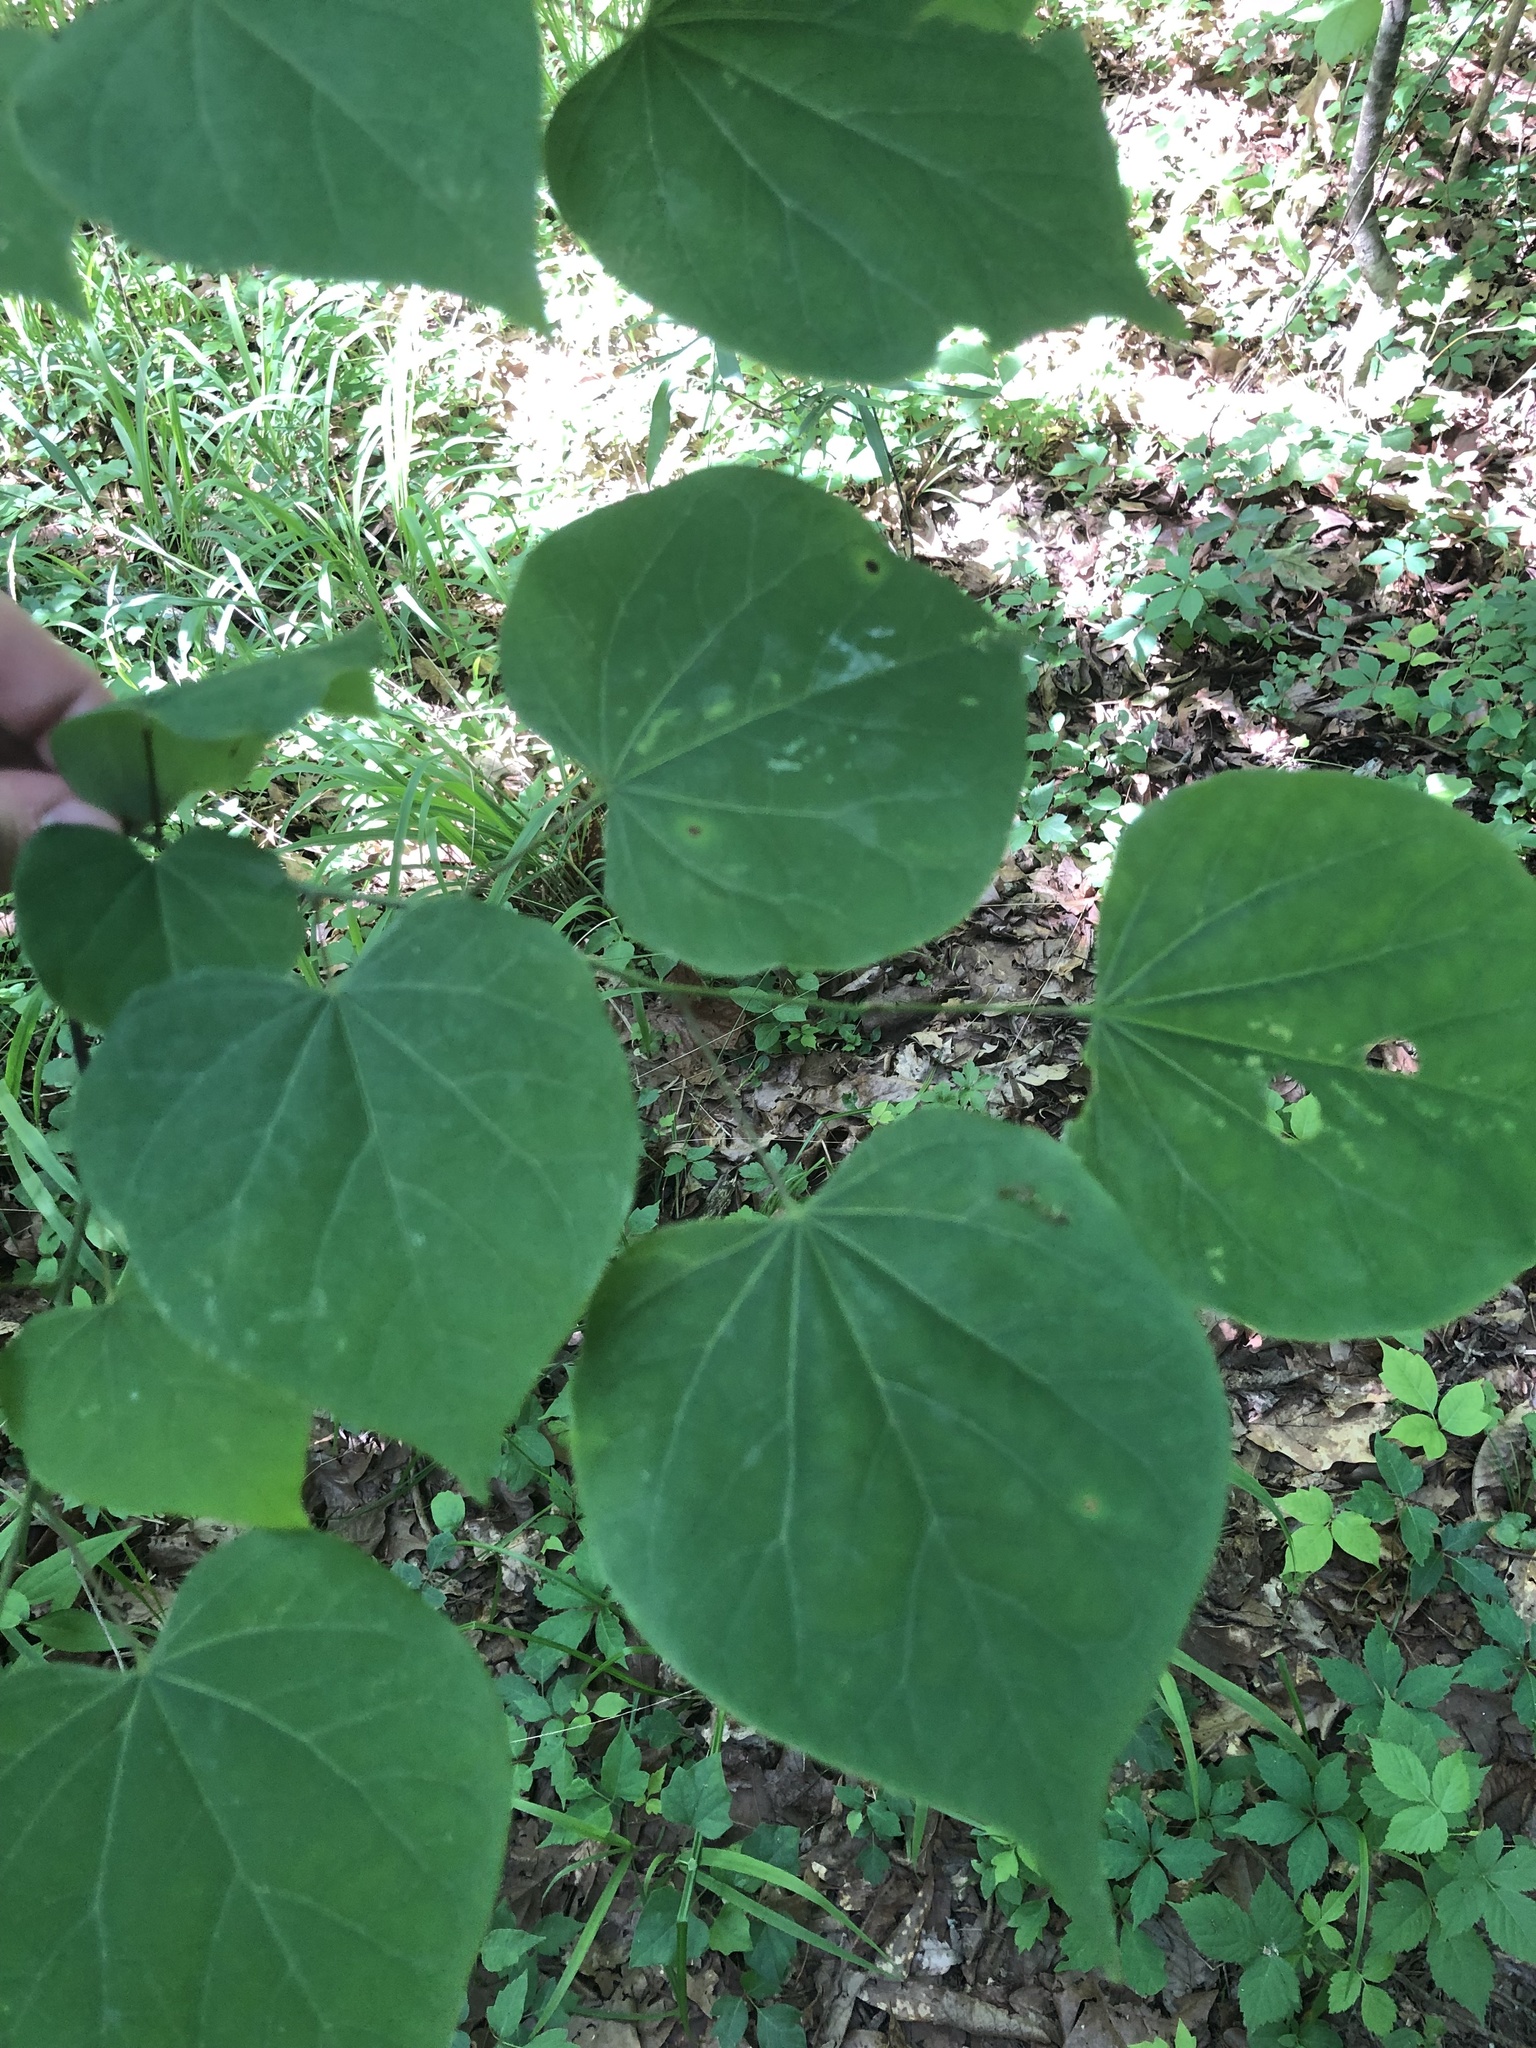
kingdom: Plantae
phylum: Tracheophyta
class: Magnoliopsida
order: Fabales
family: Fabaceae
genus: Cercis
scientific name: Cercis canadensis
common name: Eastern redbud
